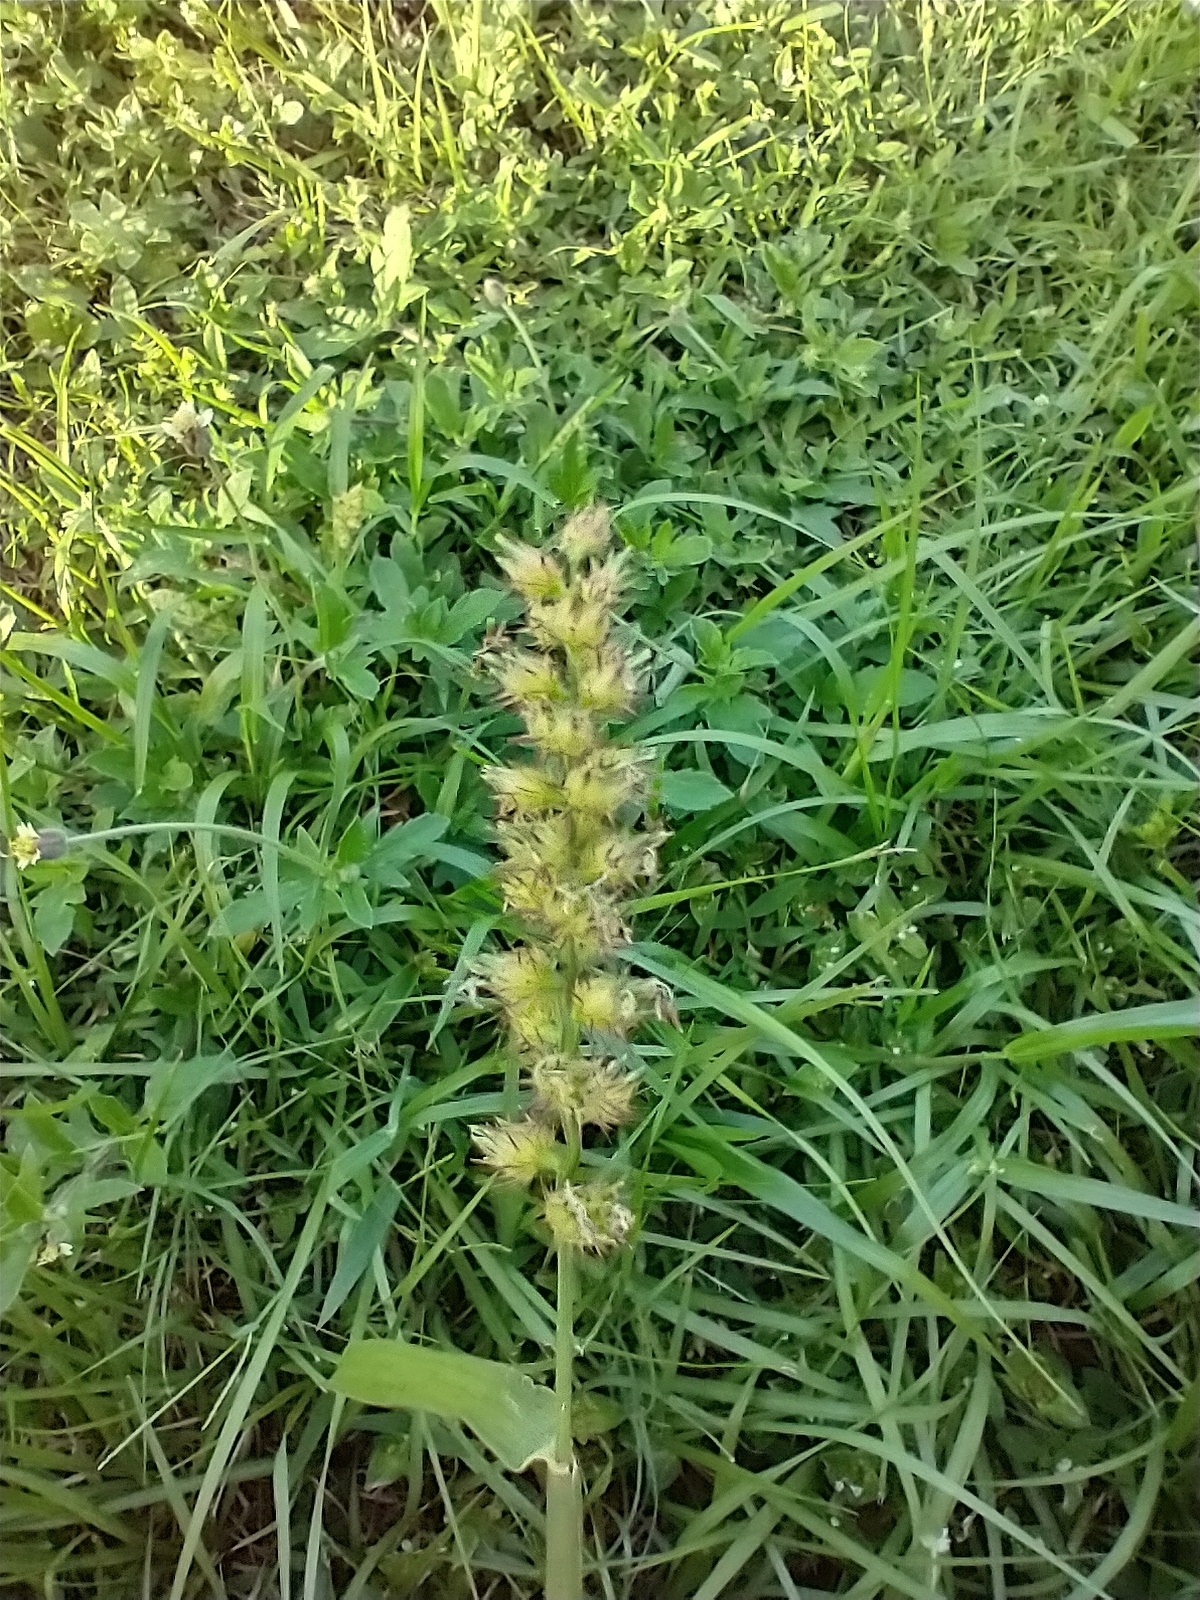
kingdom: Plantae
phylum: Tracheophyta
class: Liliopsida
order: Poales
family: Poaceae
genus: Cenchrus
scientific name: Cenchrus echinatus
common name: Southern sandbur
